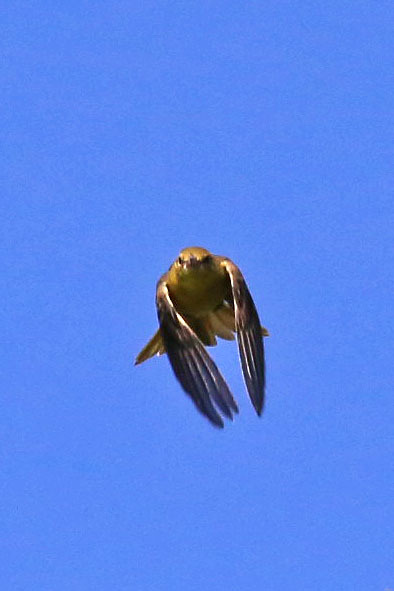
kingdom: Animalia
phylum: Chordata
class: Aves
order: Passeriformes
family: Icteridae
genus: Icterus
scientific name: Icterus spurius
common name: Orchard oriole
